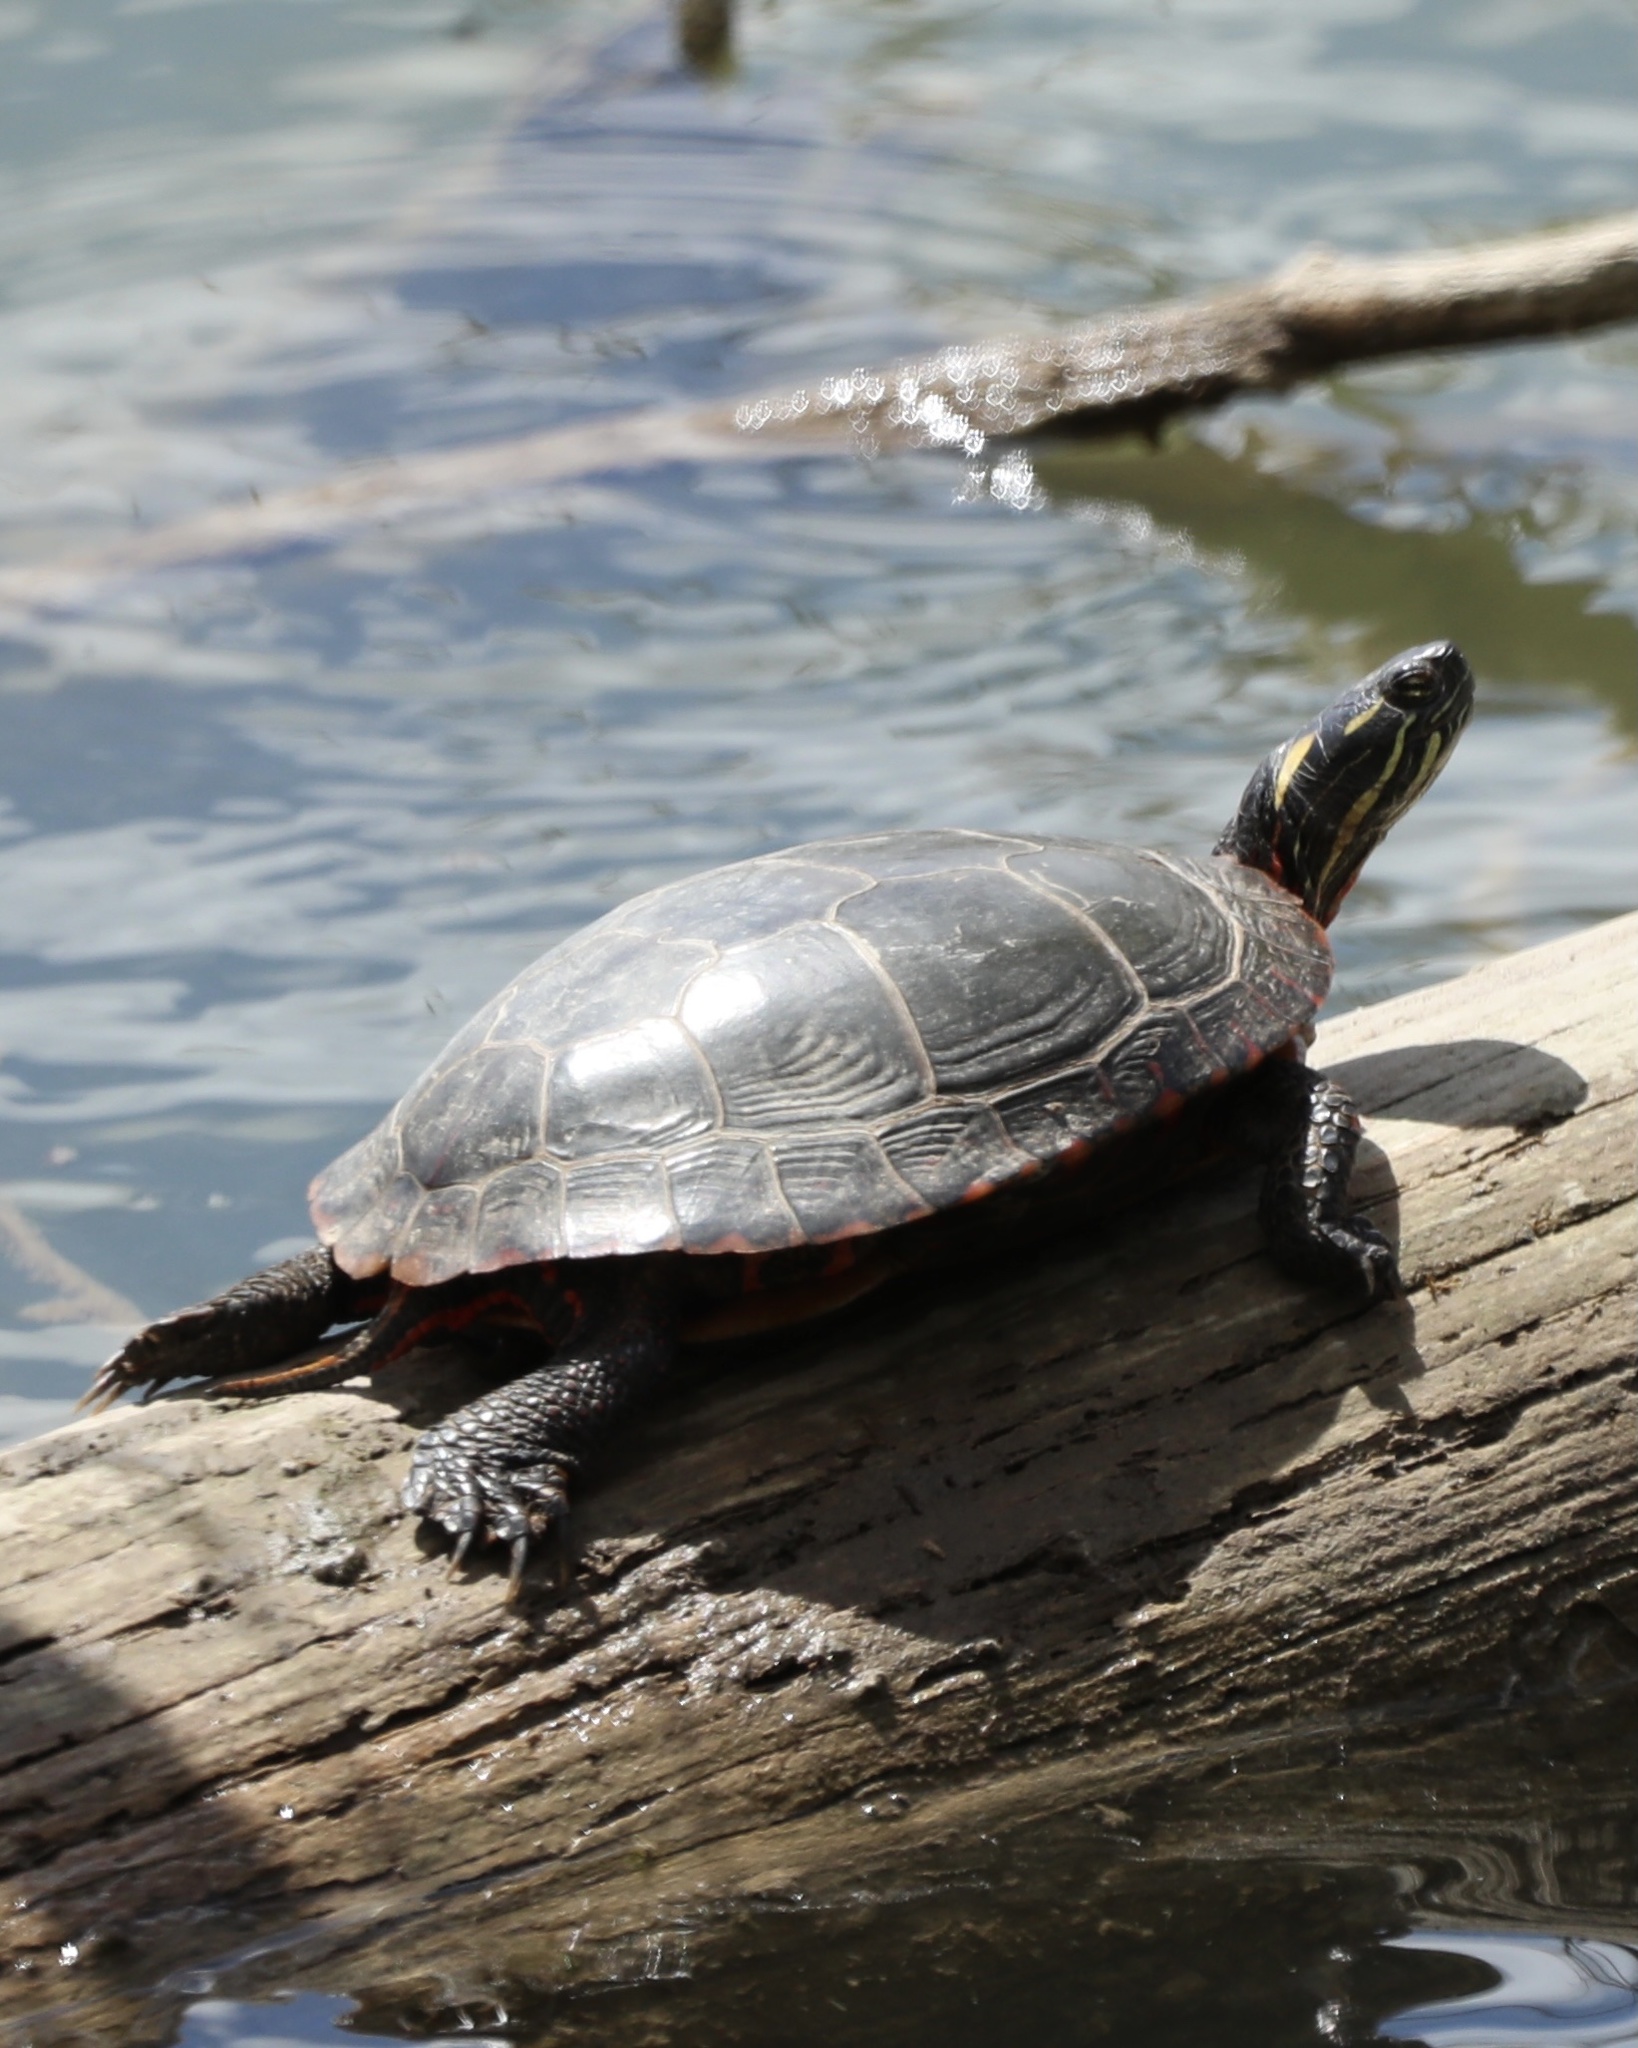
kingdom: Animalia
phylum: Chordata
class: Testudines
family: Emydidae
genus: Chrysemys
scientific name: Chrysemys picta
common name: Painted turtle
